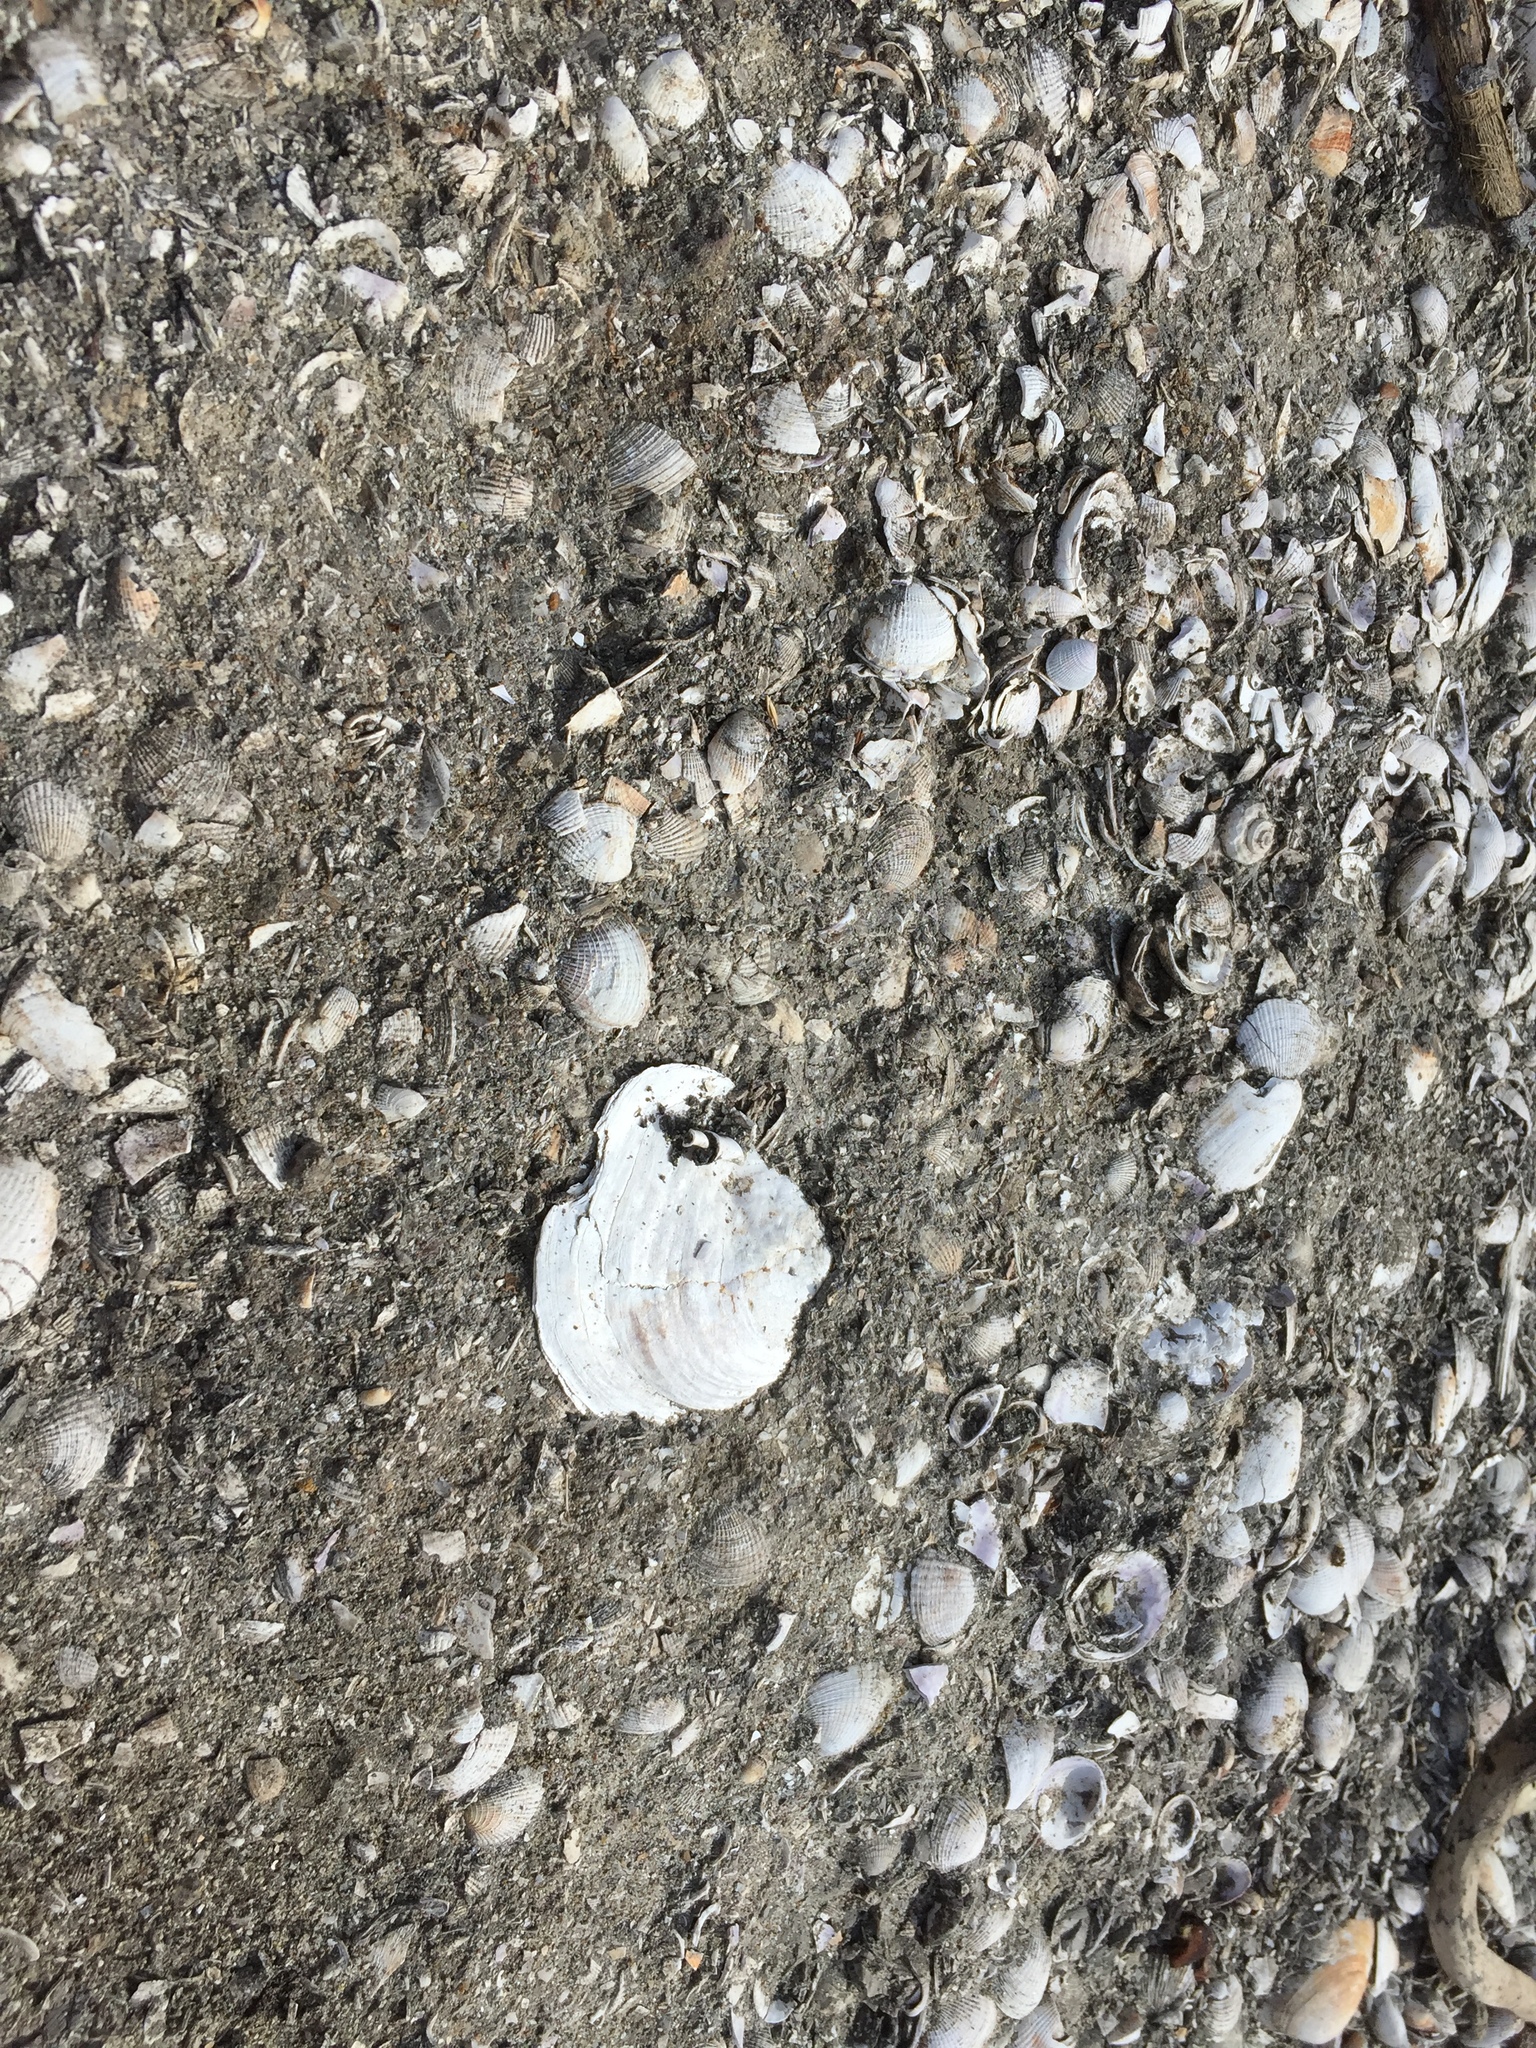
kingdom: Animalia
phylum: Mollusca
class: Bivalvia
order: Ostreida
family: Ostreidae
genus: Ostrea
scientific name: Ostrea chilensis
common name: Chilean oyster
